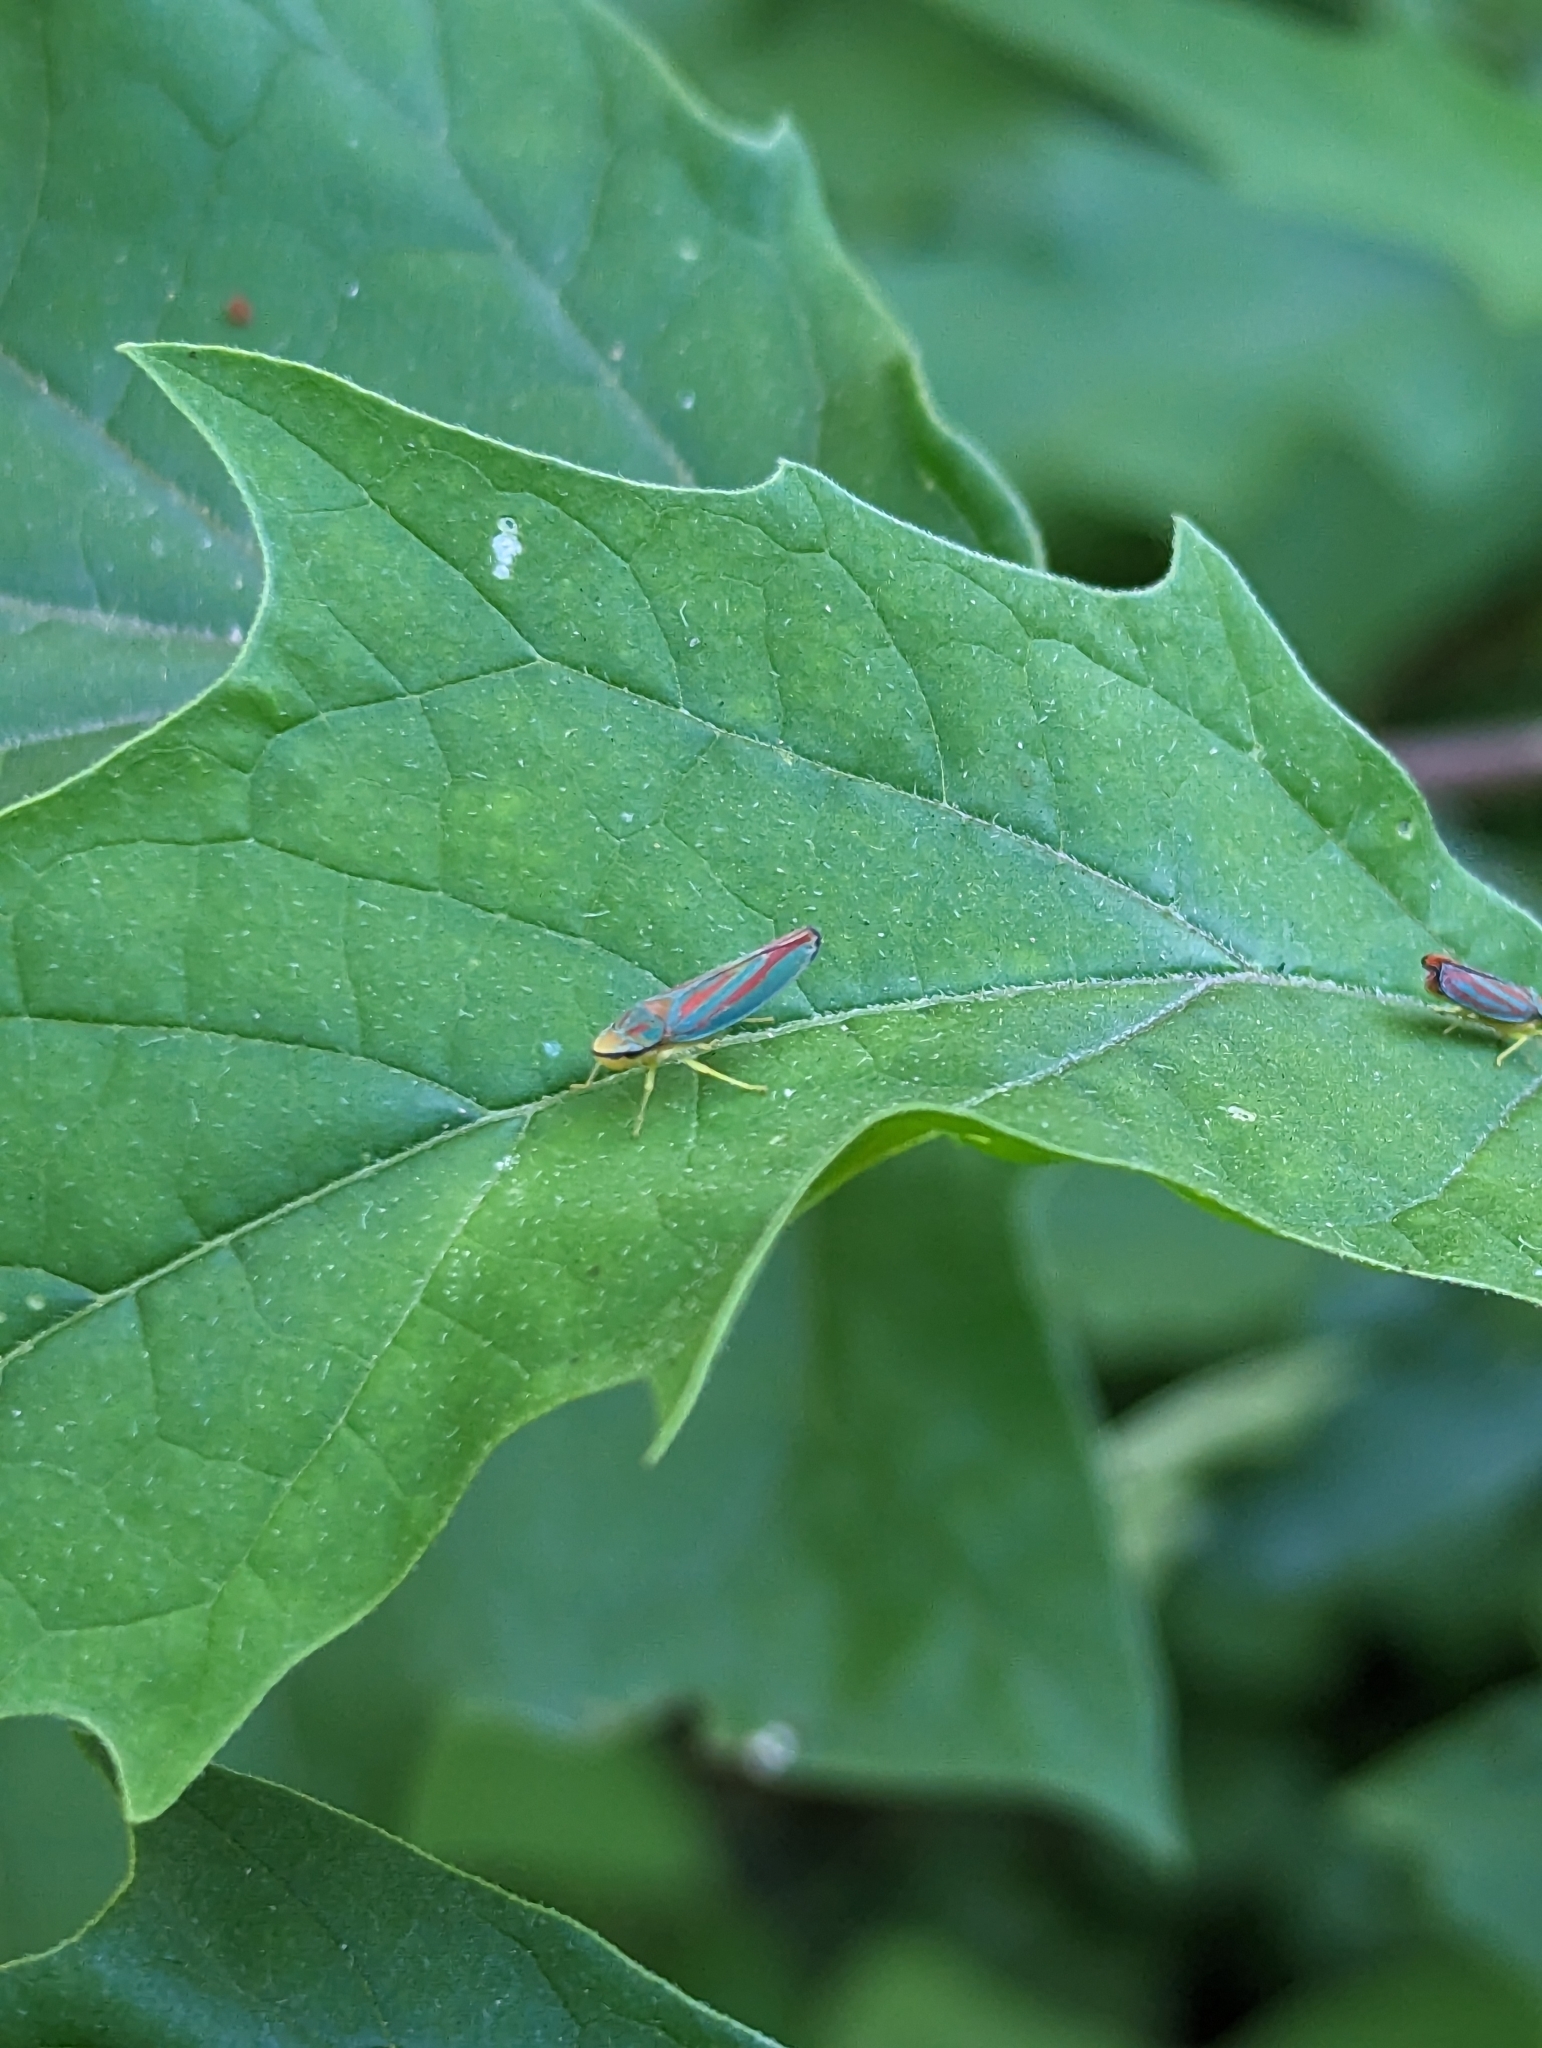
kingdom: Animalia
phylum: Arthropoda
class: Insecta
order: Hemiptera
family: Cicadellidae
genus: Graphocephala
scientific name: Graphocephala coccinea
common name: Candy-striped leafhopper
